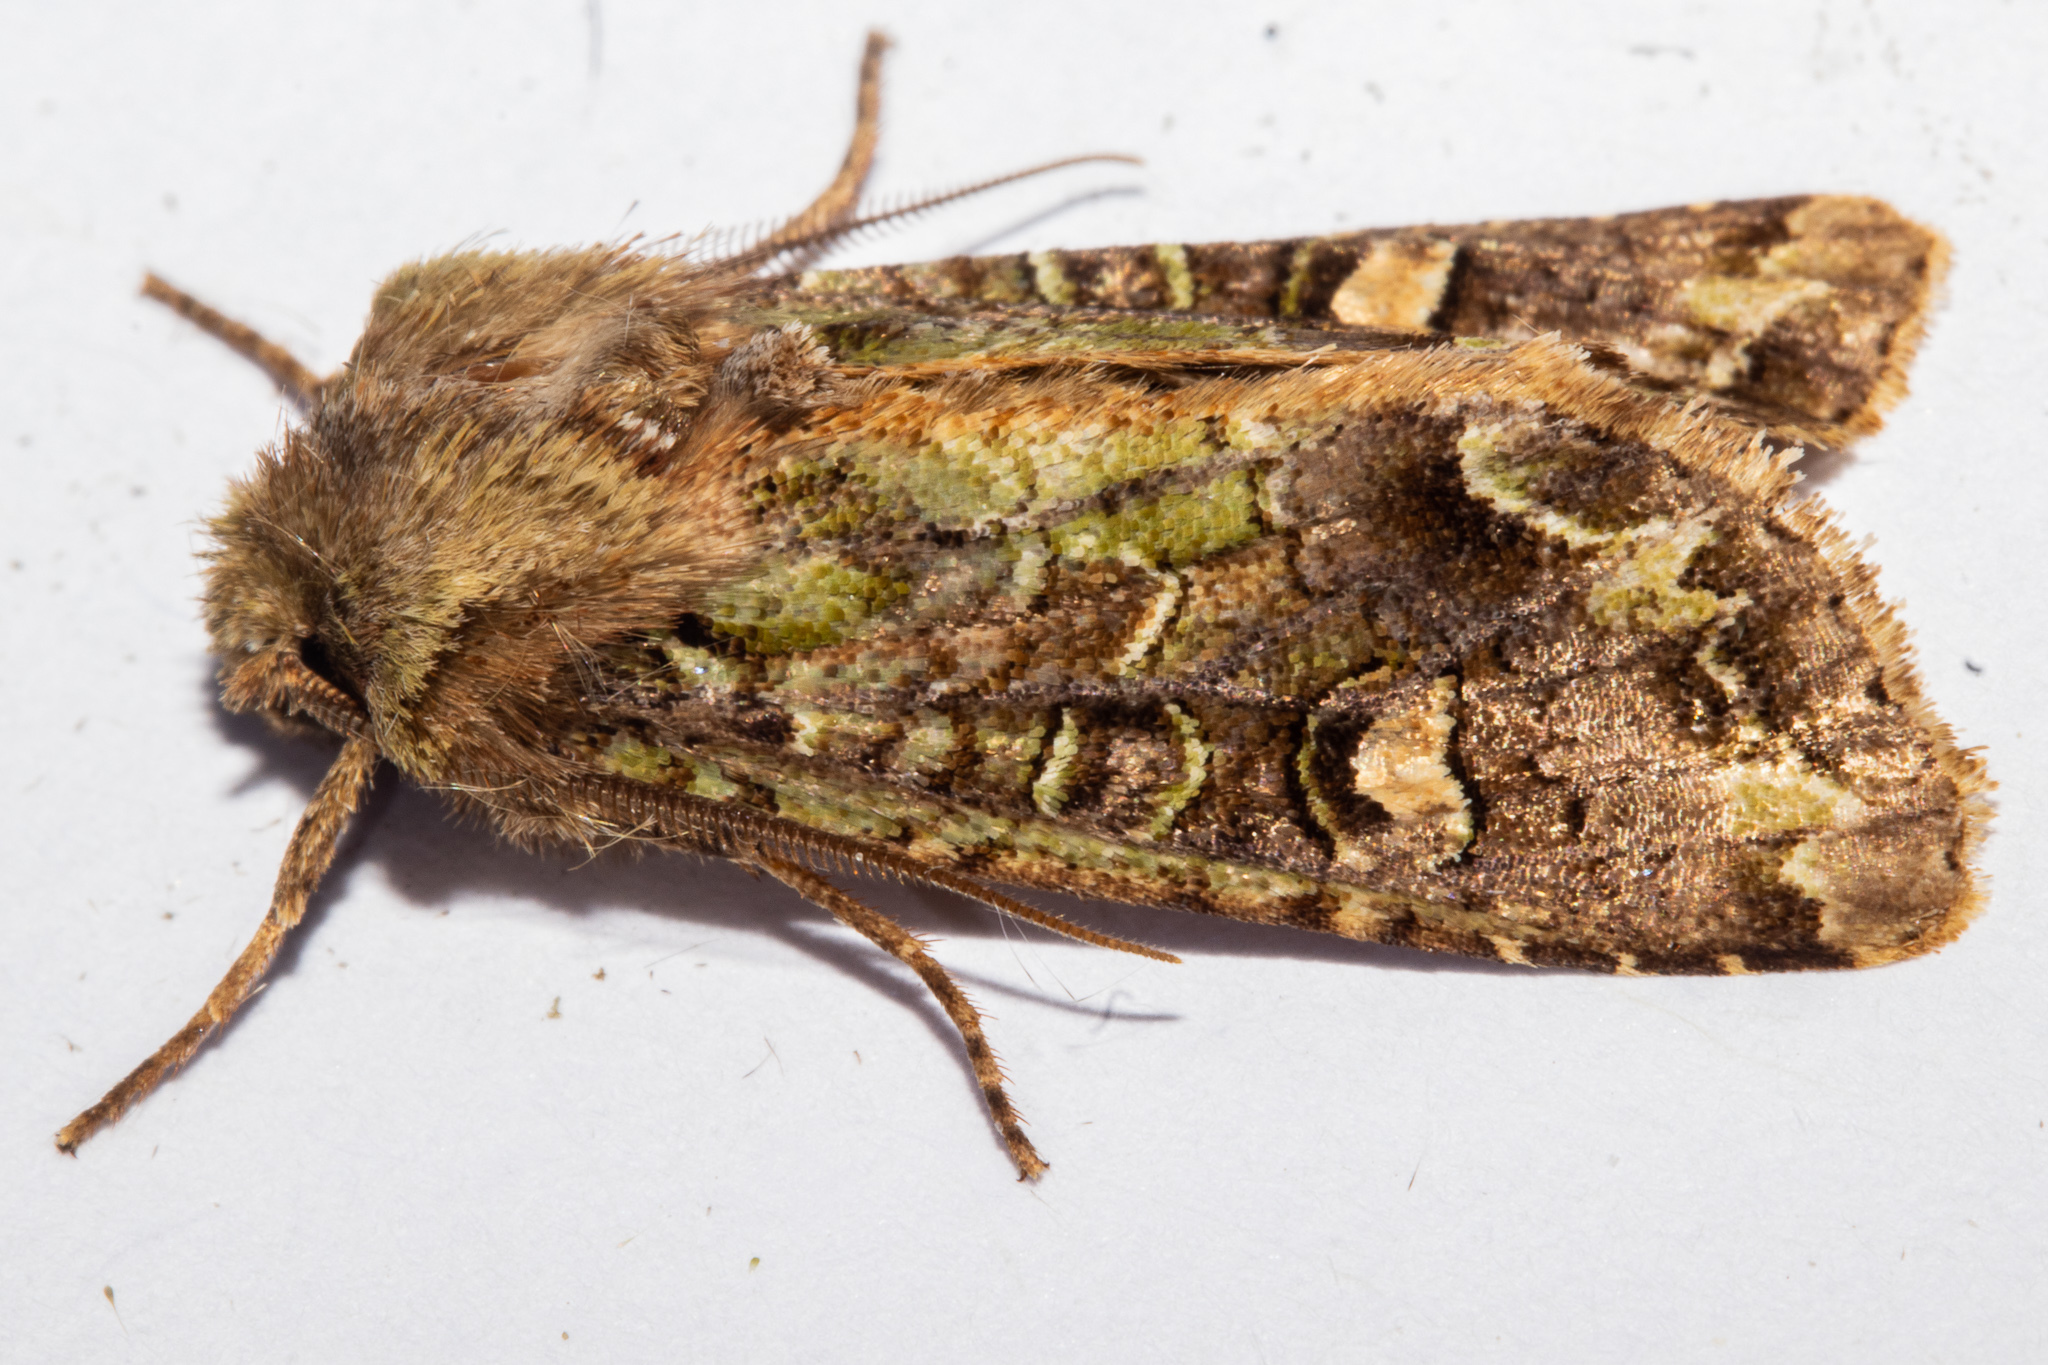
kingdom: Animalia
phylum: Arthropoda
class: Insecta
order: Lepidoptera
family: Noctuidae
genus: Ichneutica
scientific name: Ichneutica insignis
